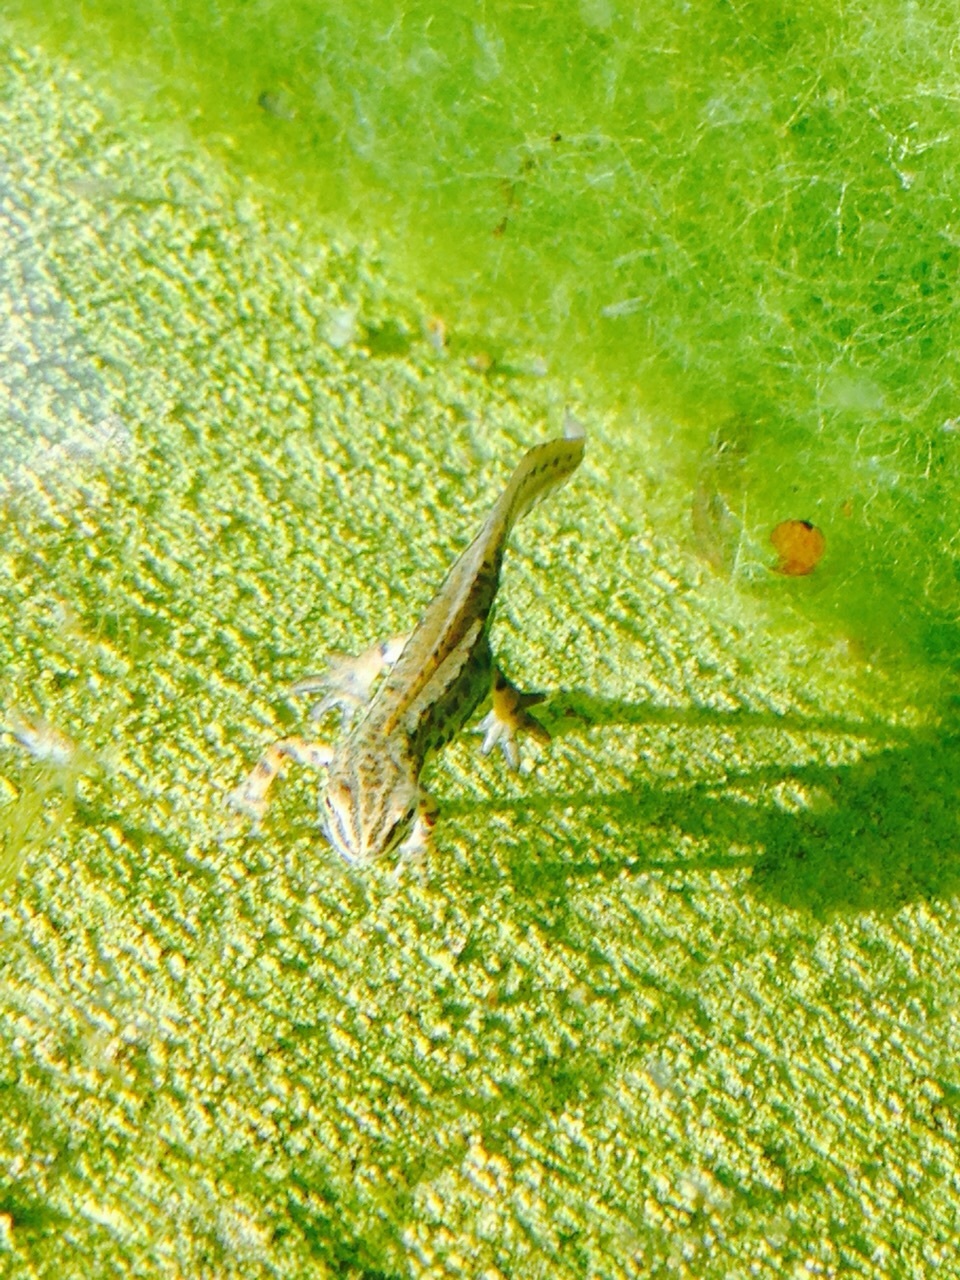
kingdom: Animalia
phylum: Chordata
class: Amphibia
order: Caudata
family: Salamandridae
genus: Lissotriton
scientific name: Lissotriton vulgaris
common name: Smooth newt
